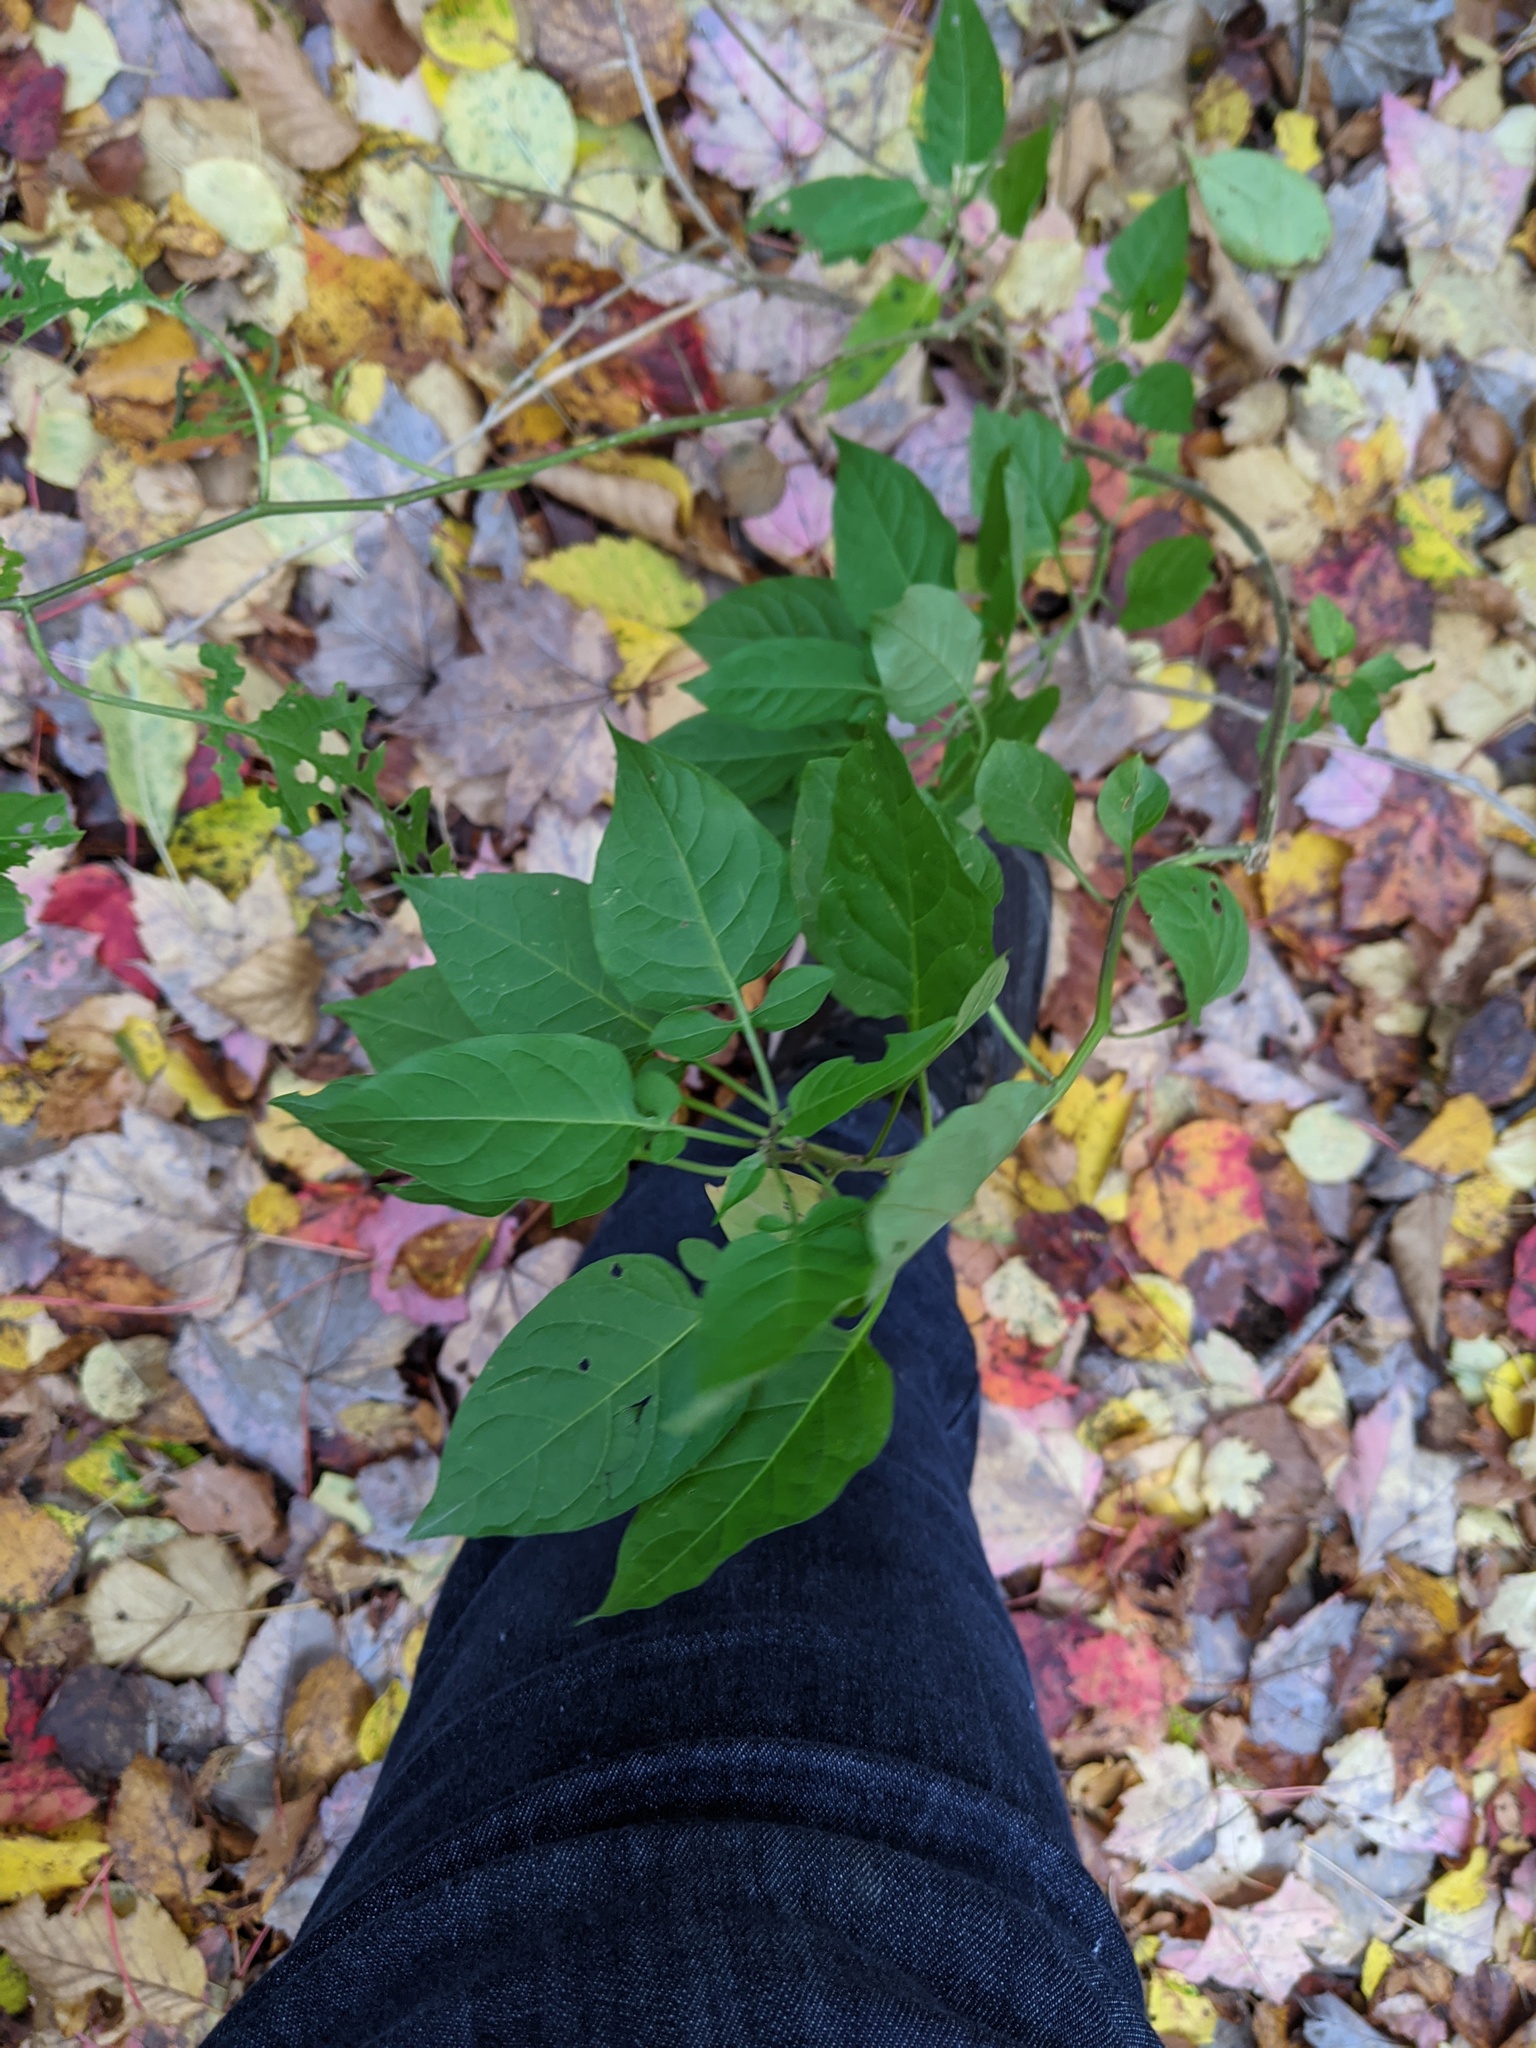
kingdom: Plantae
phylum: Tracheophyta
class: Magnoliopsida
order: Solanales
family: Solanaceae
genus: Solanum
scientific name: Solanum dulcamara
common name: Climbing nightshade
